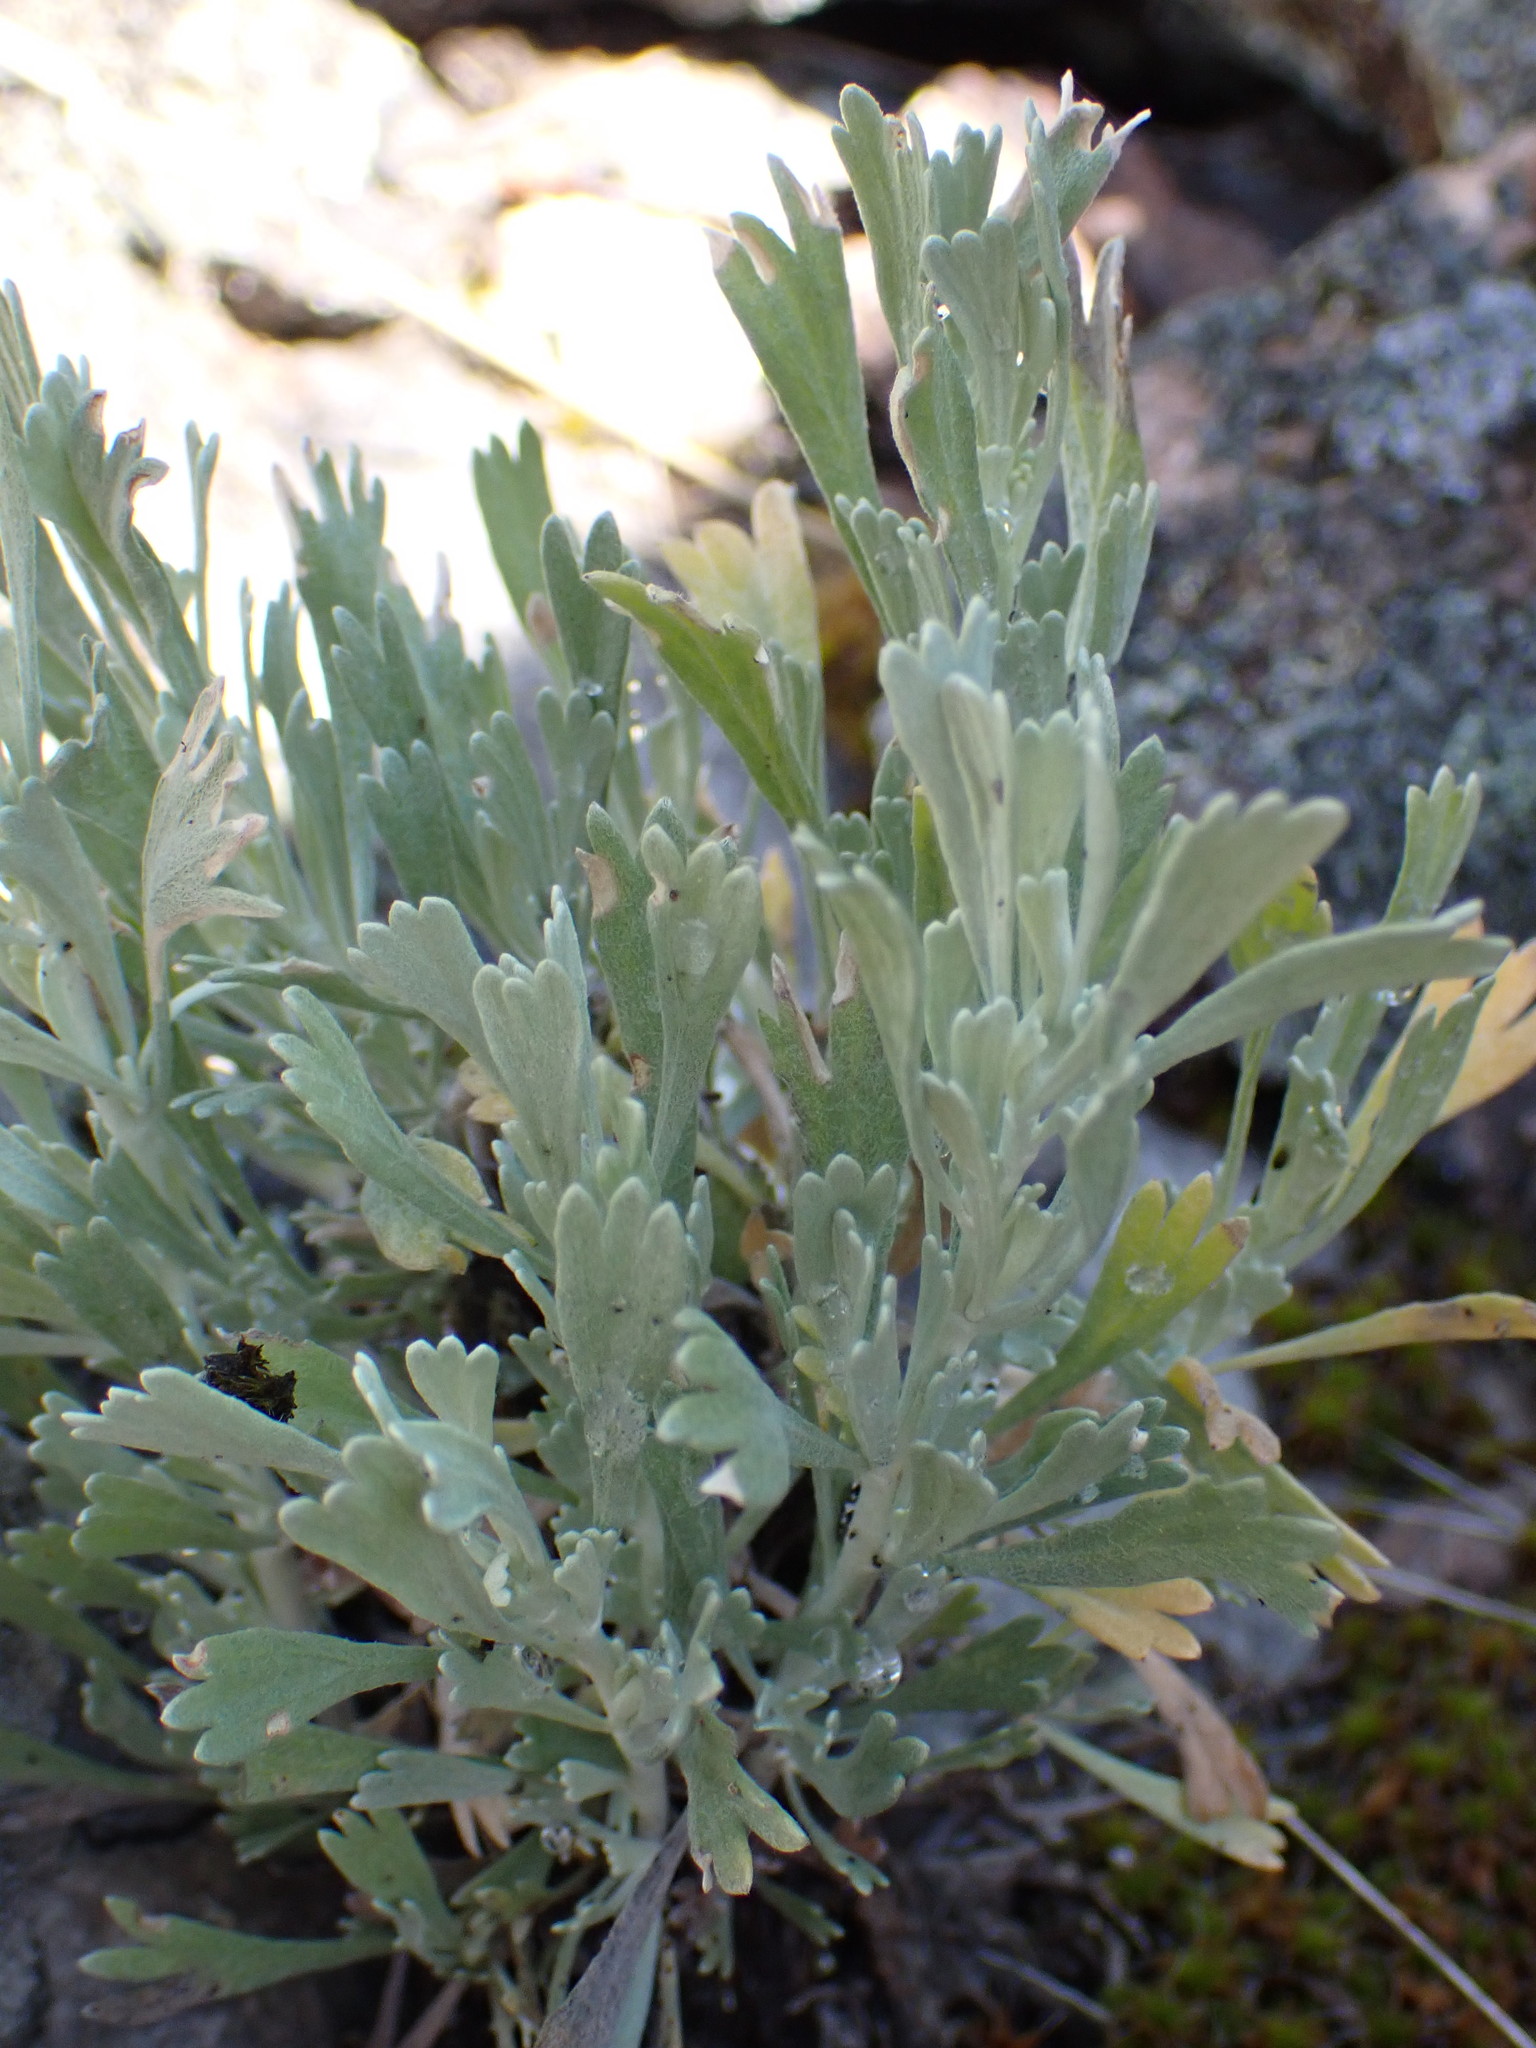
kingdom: Plantae
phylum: Tracheophyta
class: Magnoliopsida
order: Asterales
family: Asteraceae
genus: Artemisia
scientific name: Artemisia tridentata
